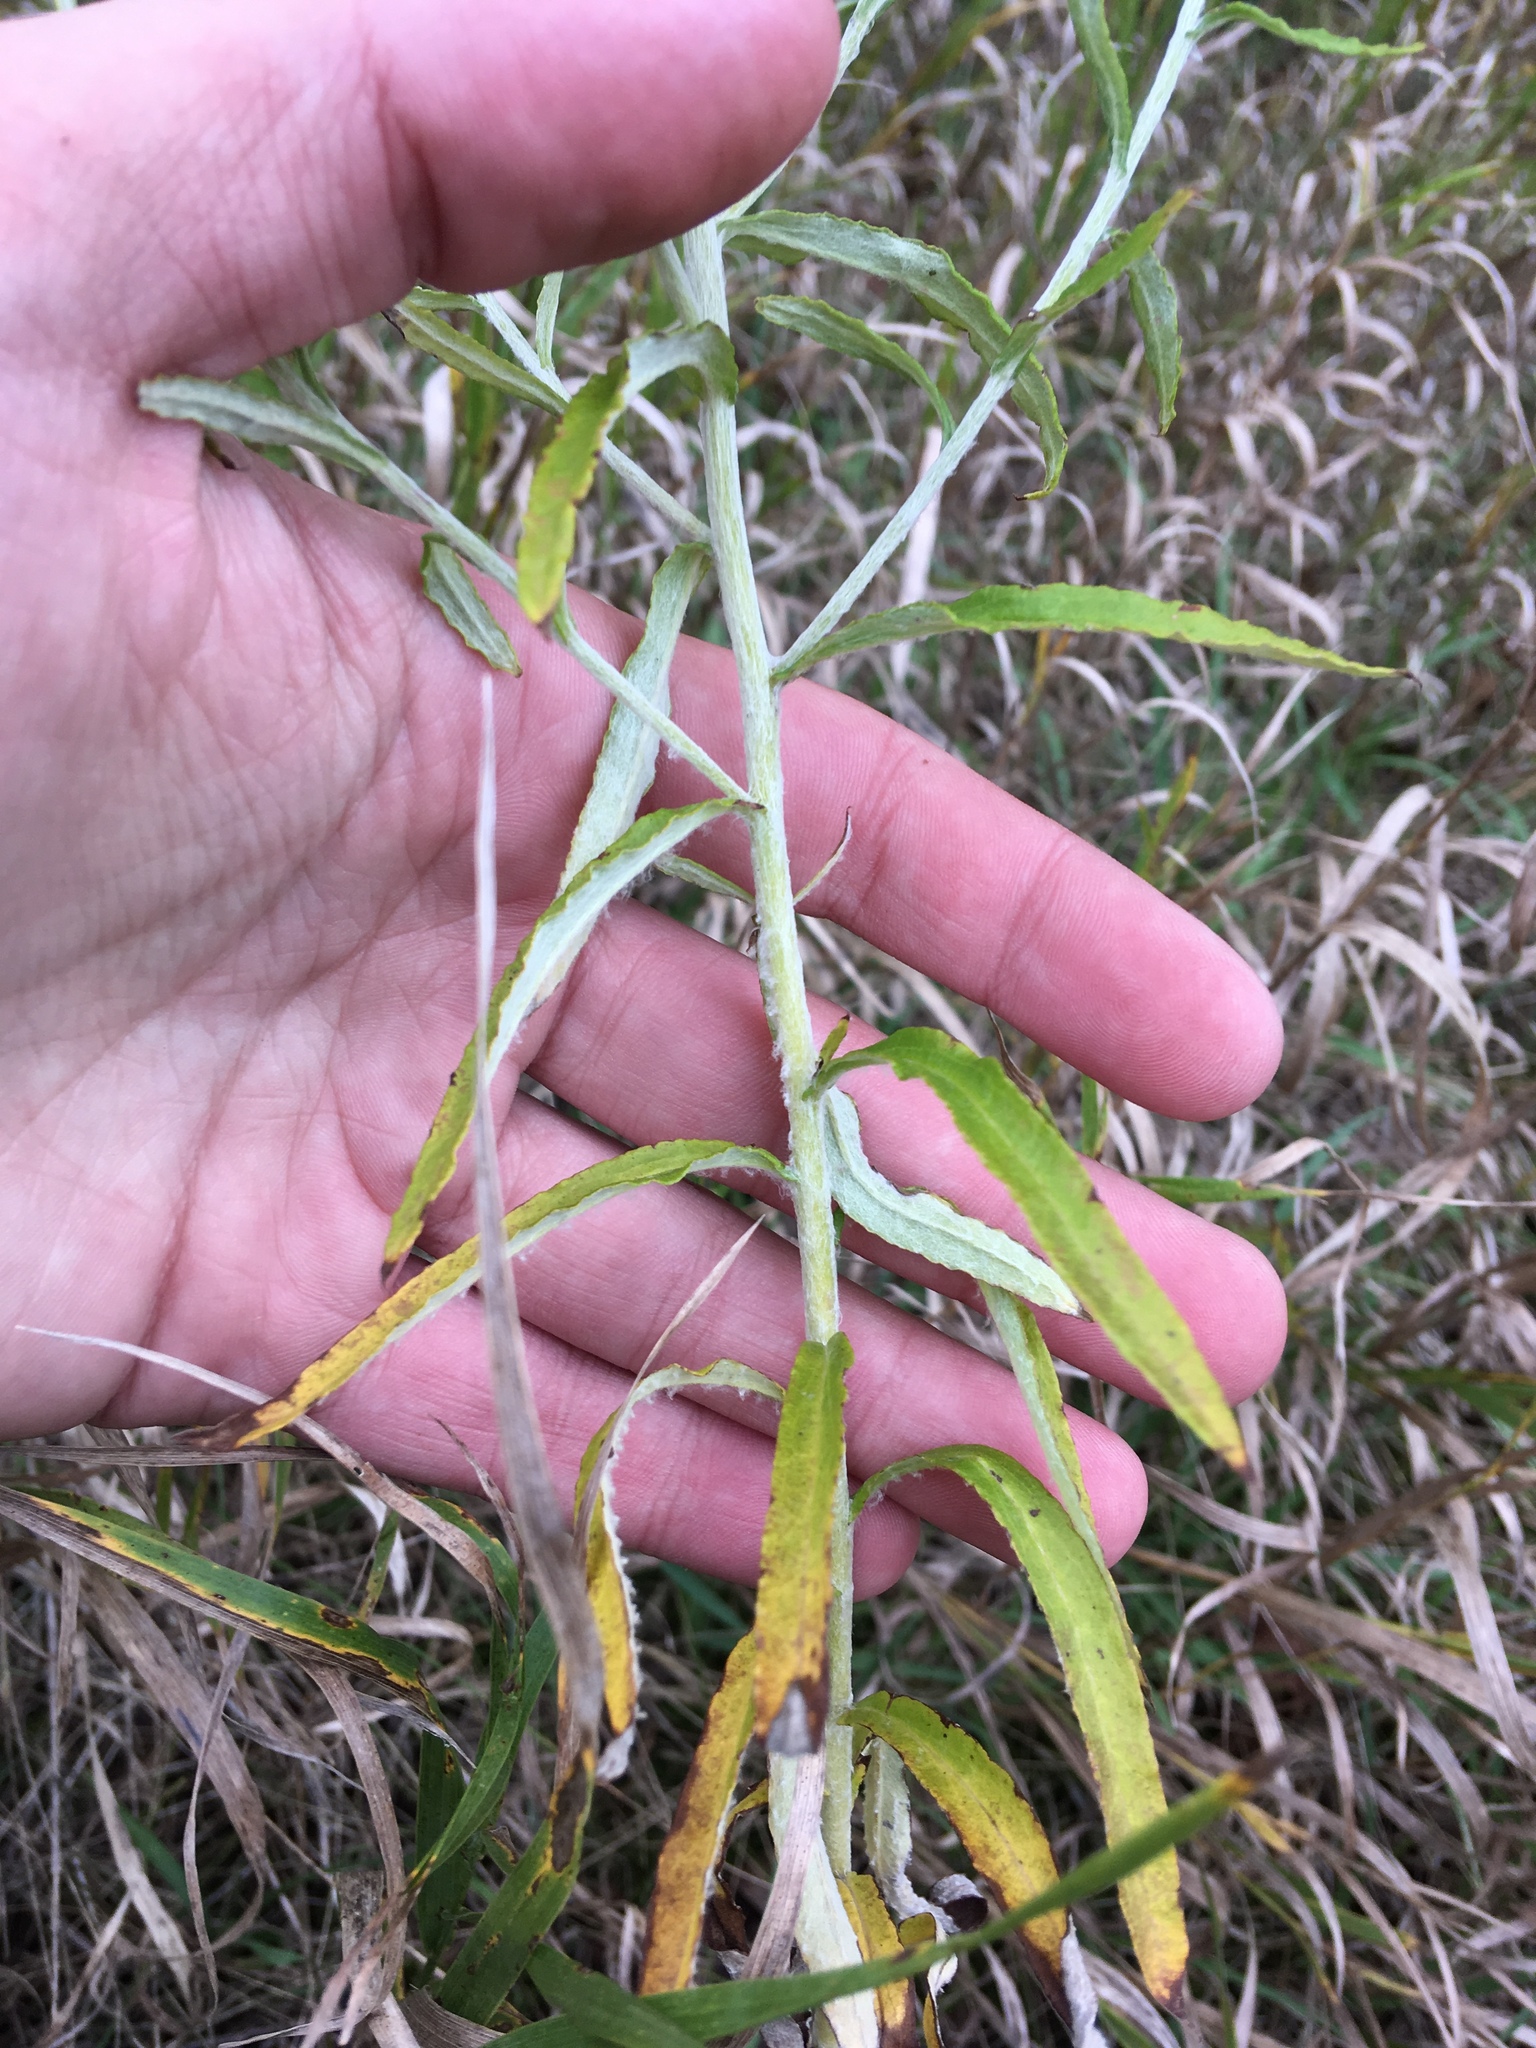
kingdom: Plantae
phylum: Tracheophyta
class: Magnoliopsida
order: Asterales
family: Asteraceae
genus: Pseudognaphalium
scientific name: Pseudognaphalium obtusifolium
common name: Eastern rabbit-tobacco
